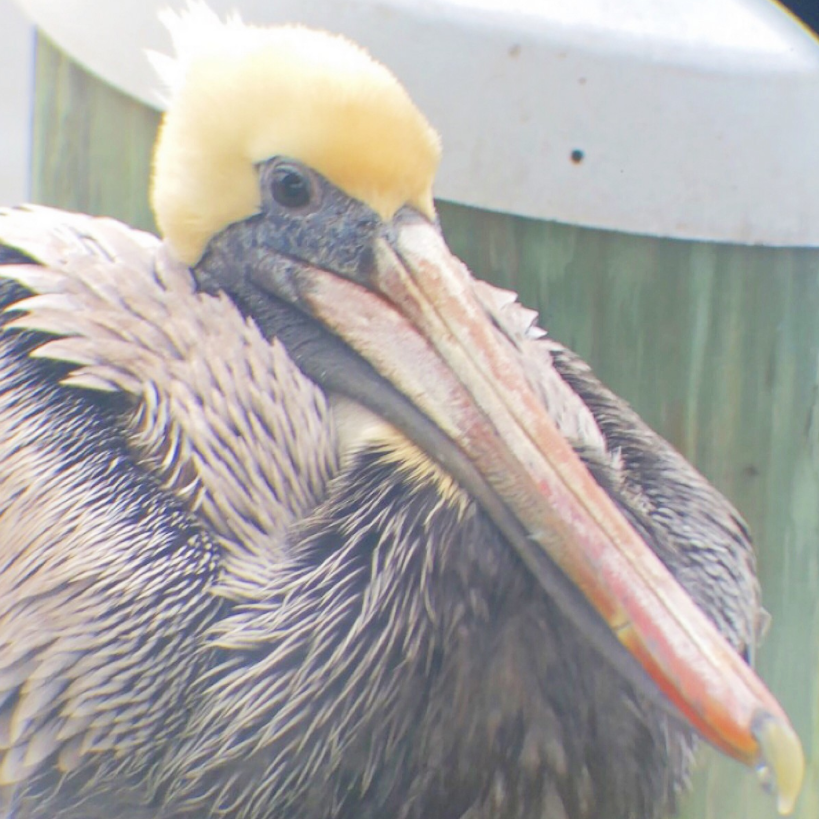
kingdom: Animalia
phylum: Chordata
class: Aves
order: Pelecaniformes
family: Pelecanidae
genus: Pelecanus
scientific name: Pelecanus occidentalis
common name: Brown pelican
